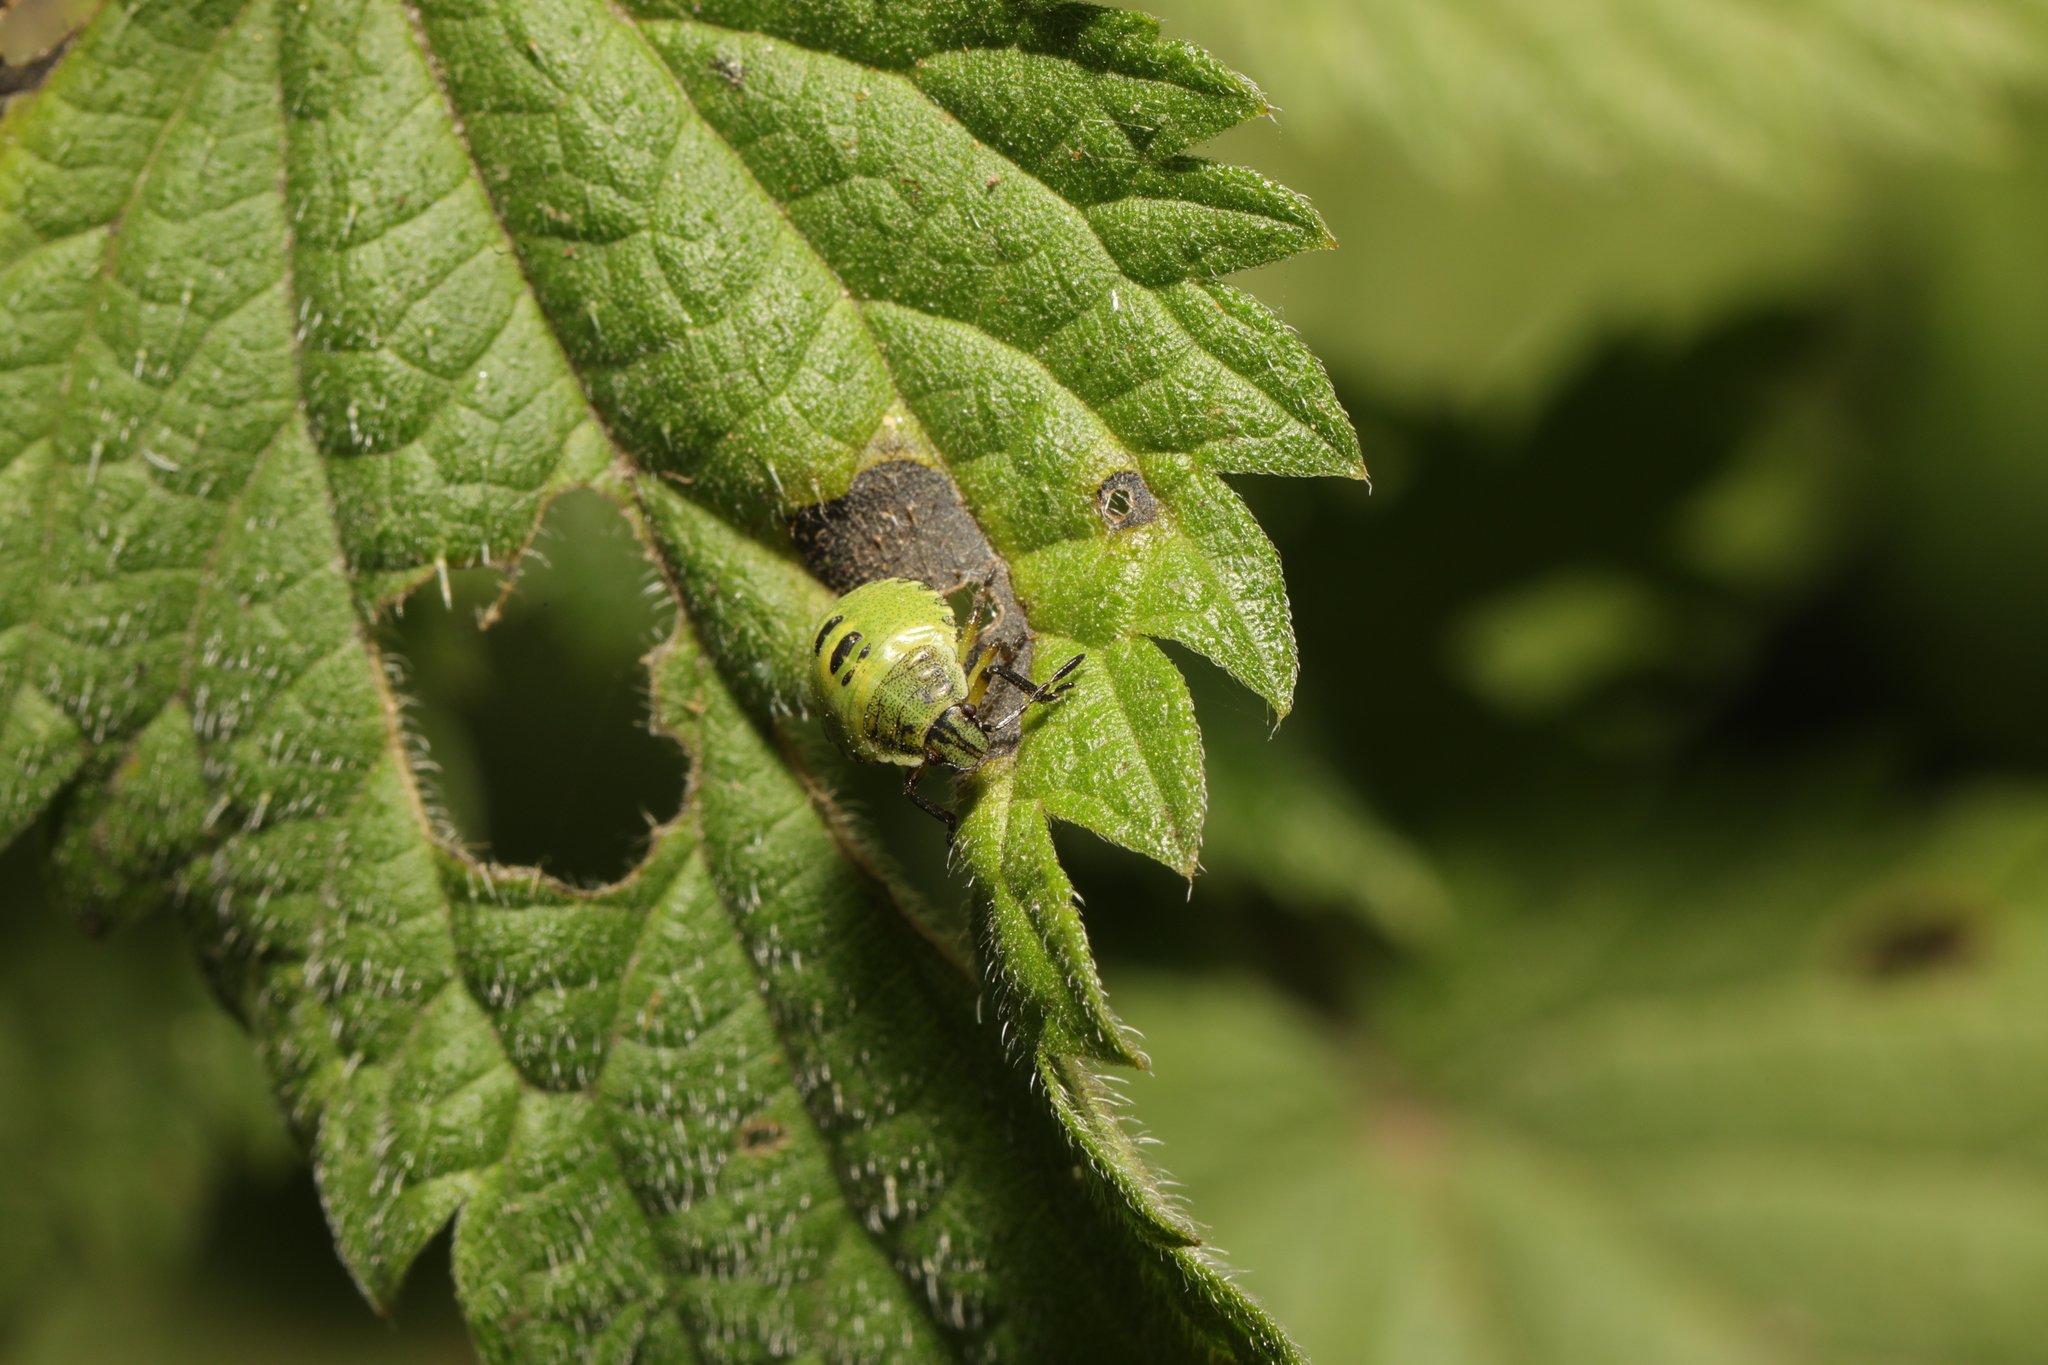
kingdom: Animalia
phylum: Arthropoda
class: Insecta
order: Hemiptera
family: Pentatomidae
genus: Palomena
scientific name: Palomena prasina
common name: Green shieldbug
